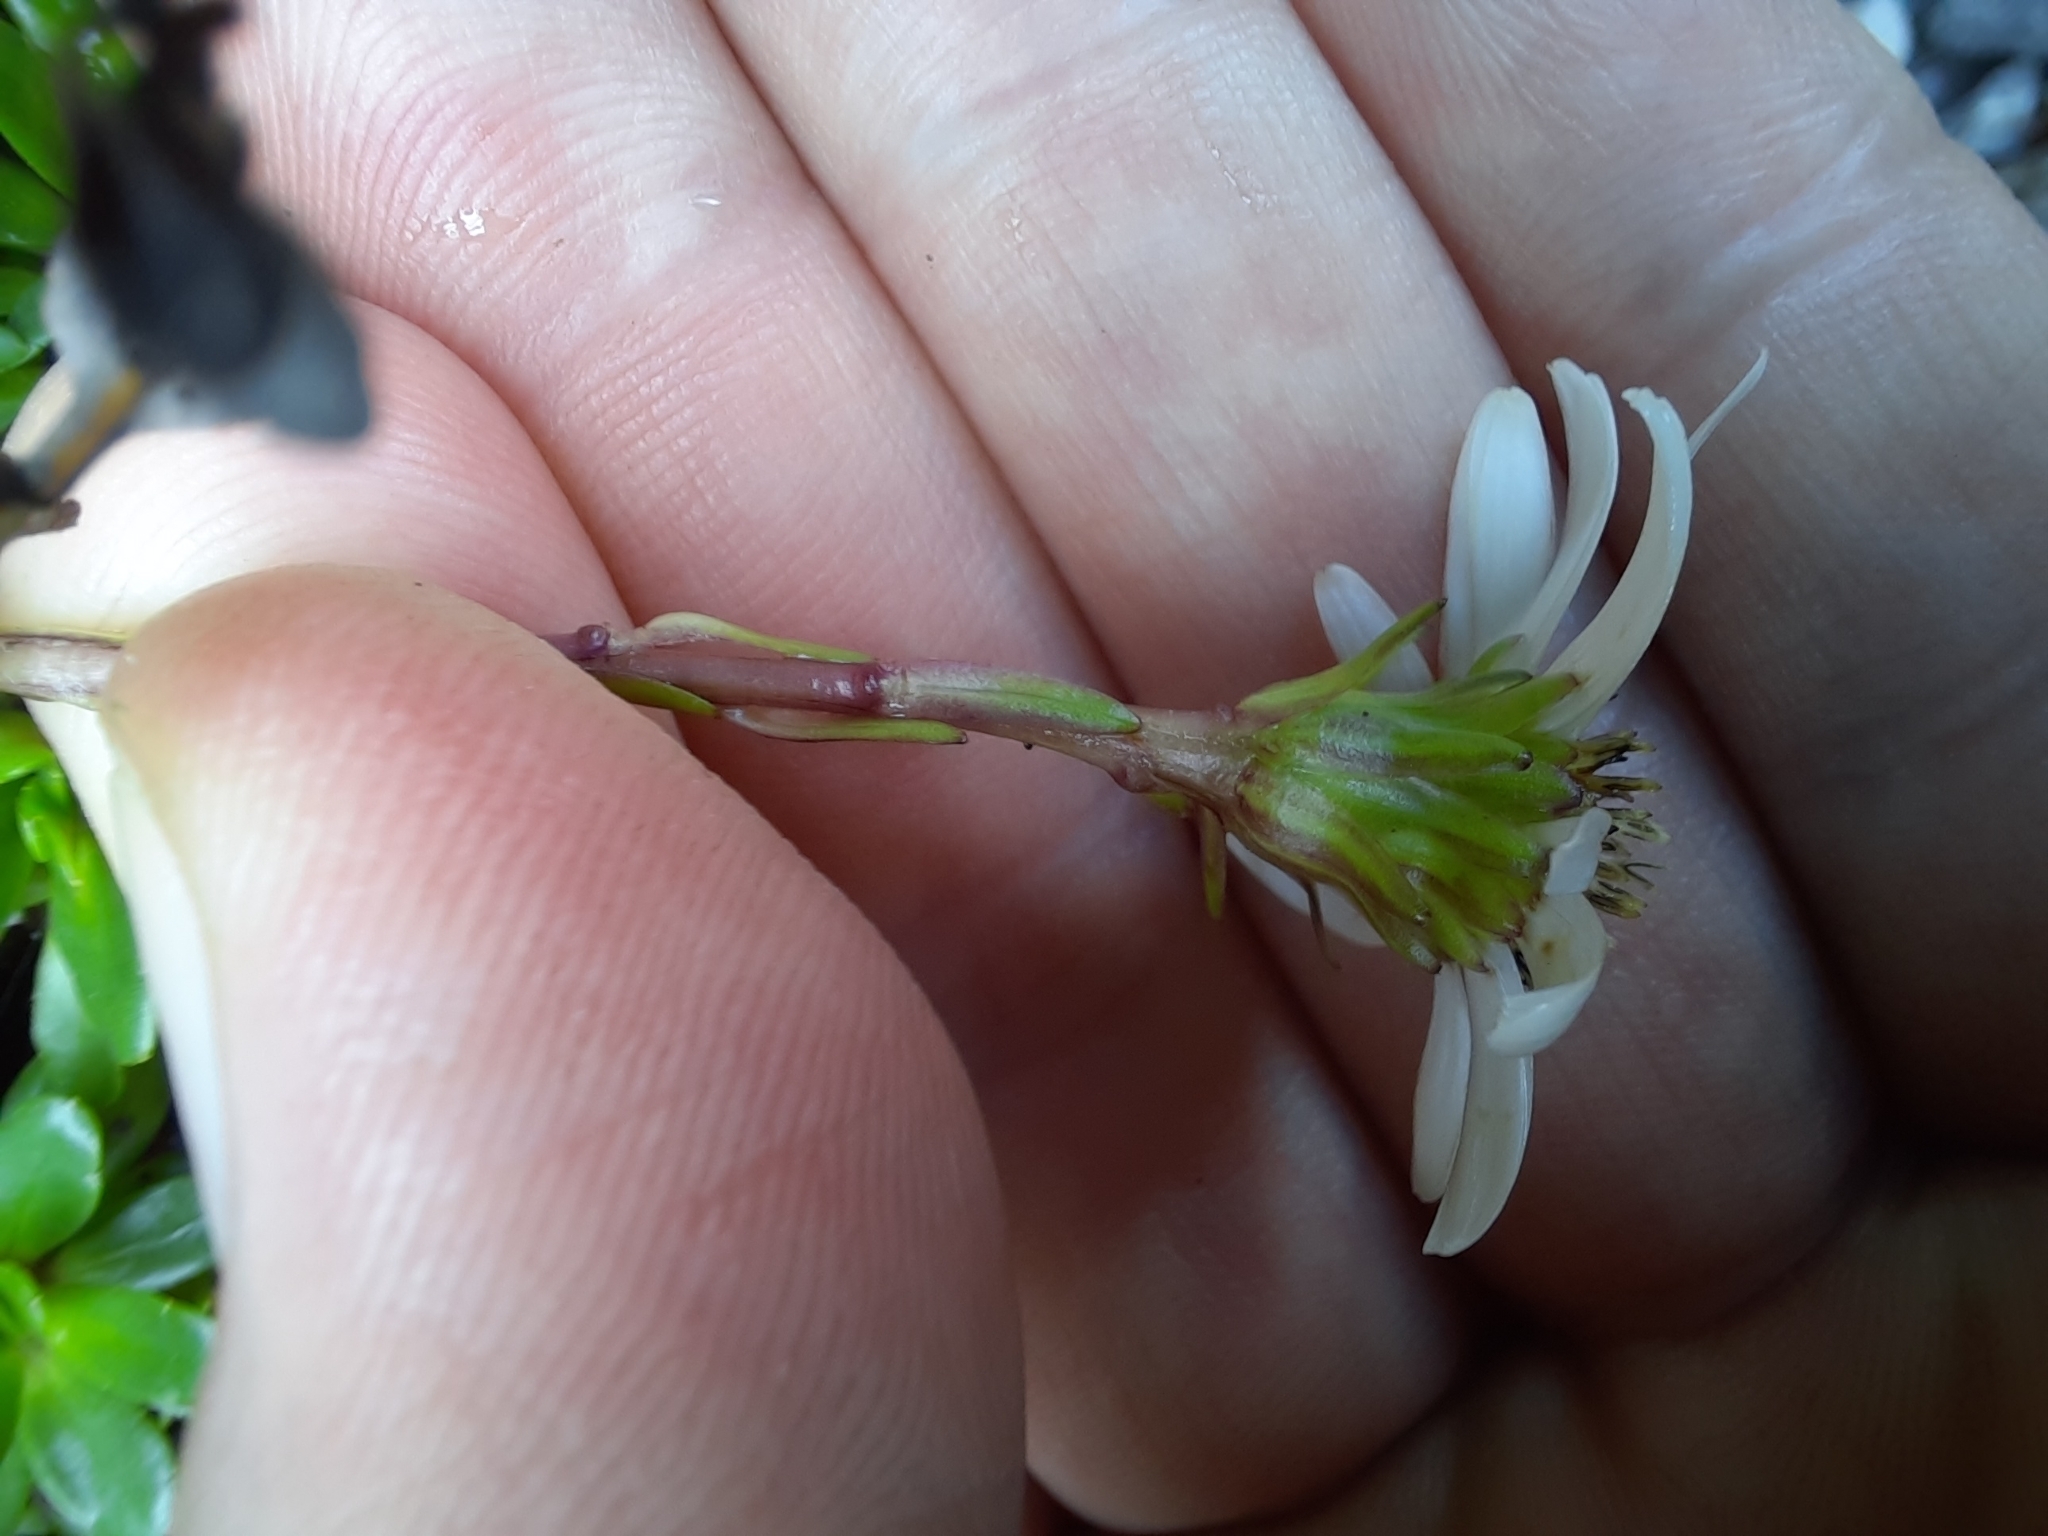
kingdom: Plantae
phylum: Tracheophyta
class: Magnoliopsida
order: Asterales
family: Asteraceae
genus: Celmisia
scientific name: Celmisia bellidioides
